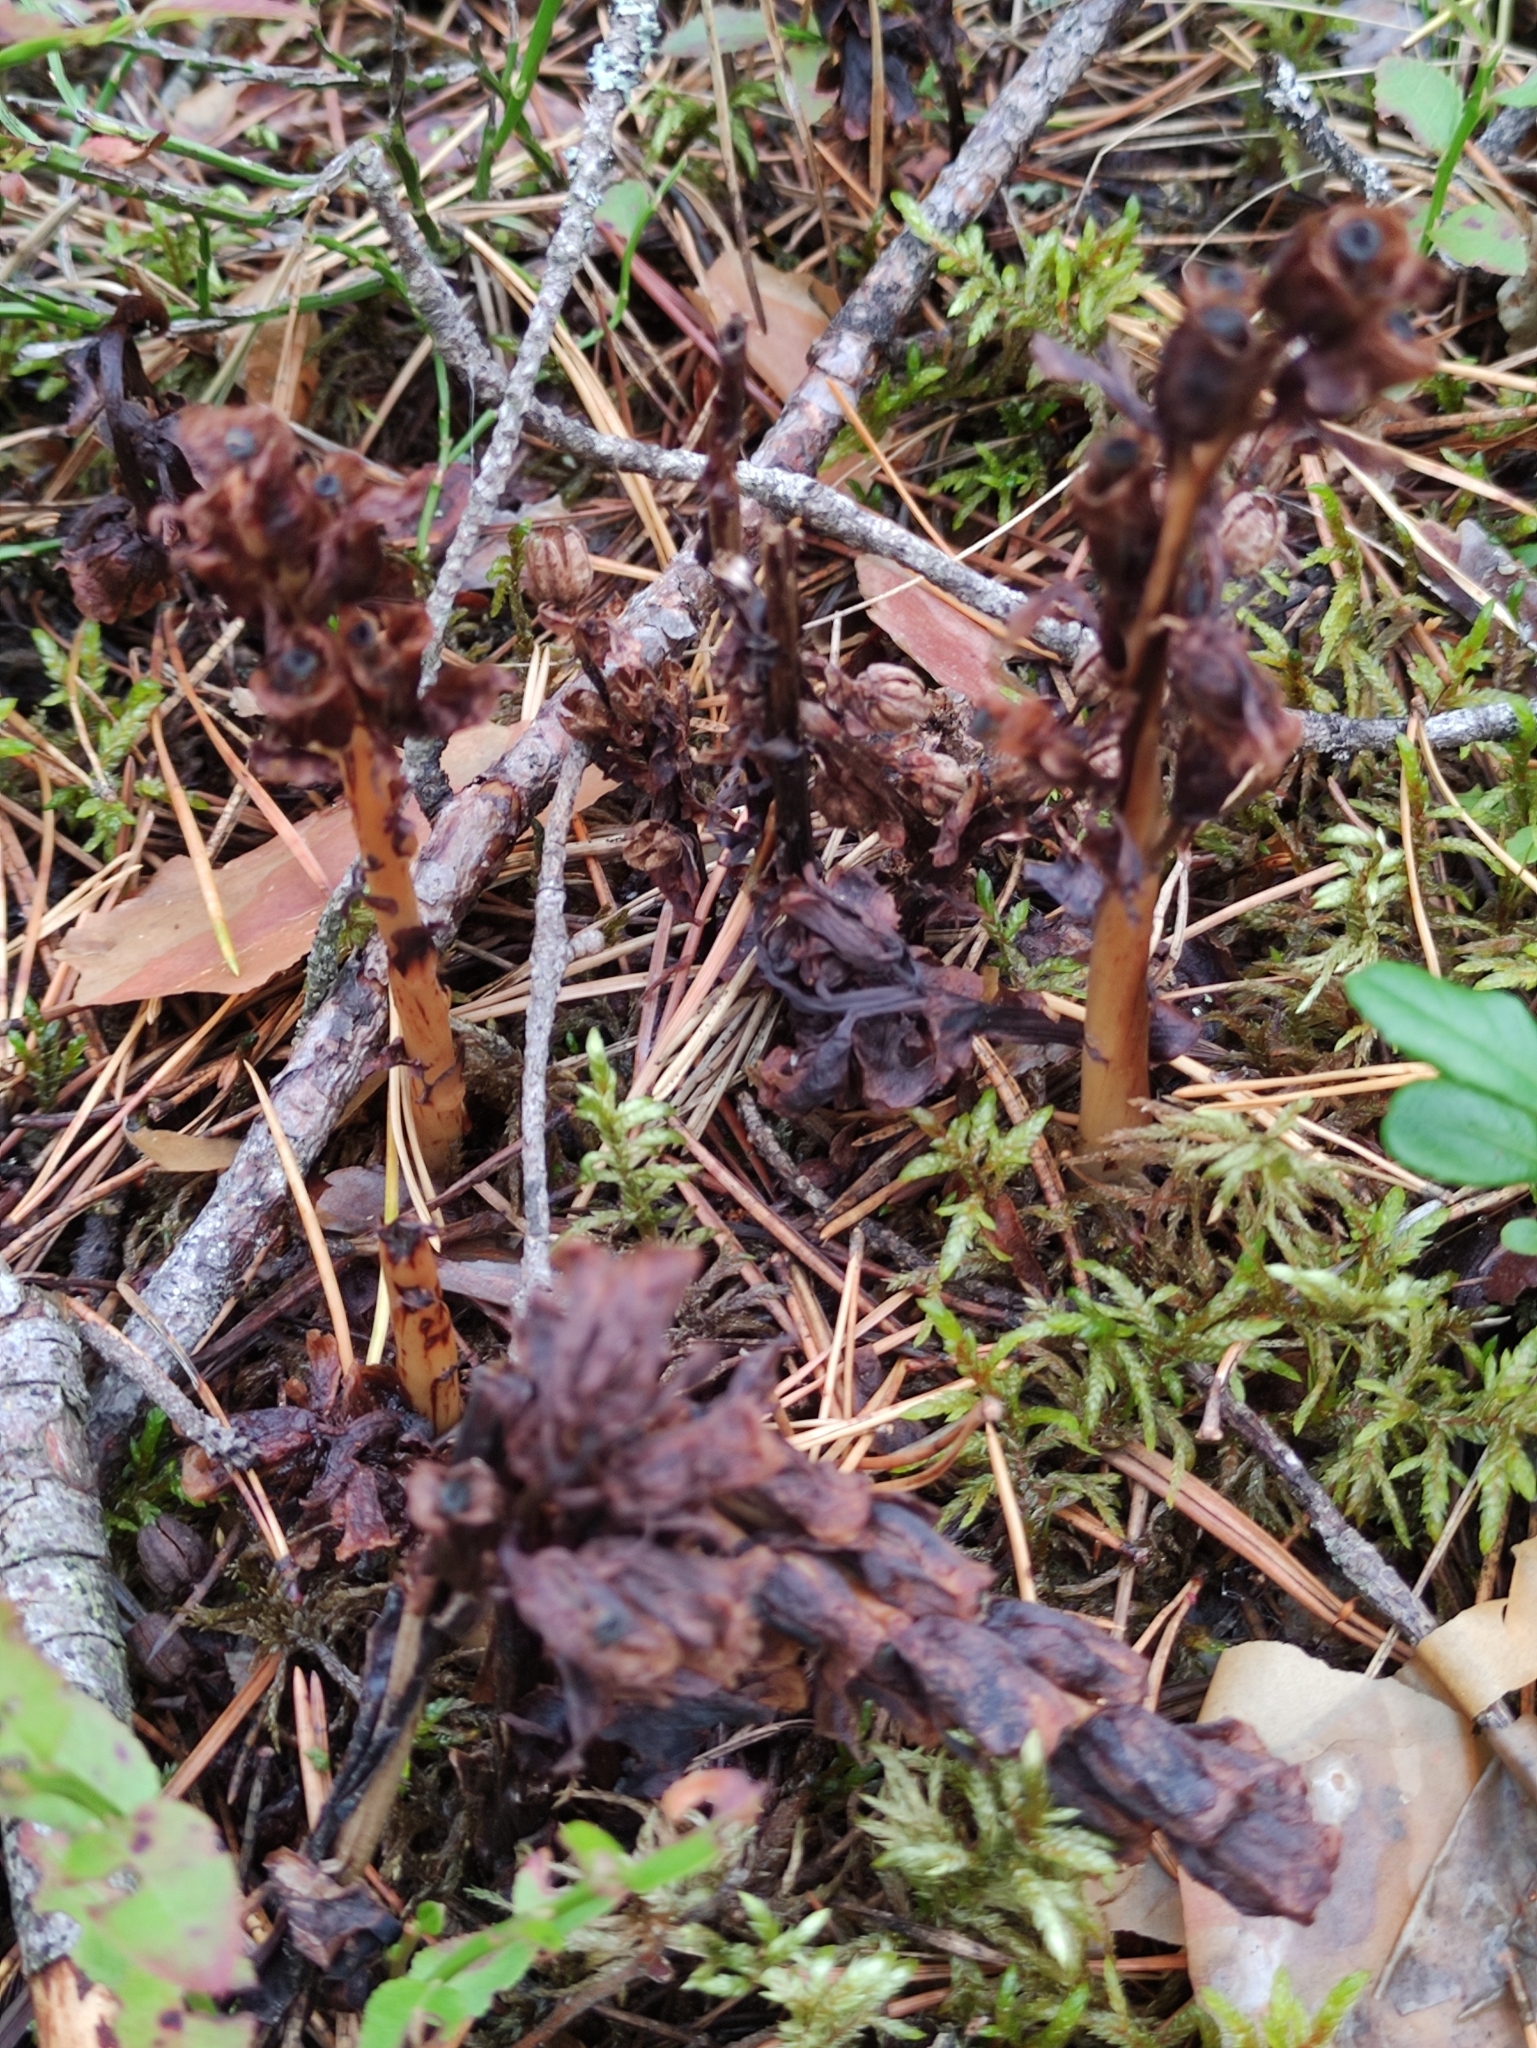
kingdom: Plantae
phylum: Tracheophyta
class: Magnoliopsida
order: Ericales
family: Ericaceae
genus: Hypopitys
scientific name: Hypopitys monotropa
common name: Yellow bird's-nest
